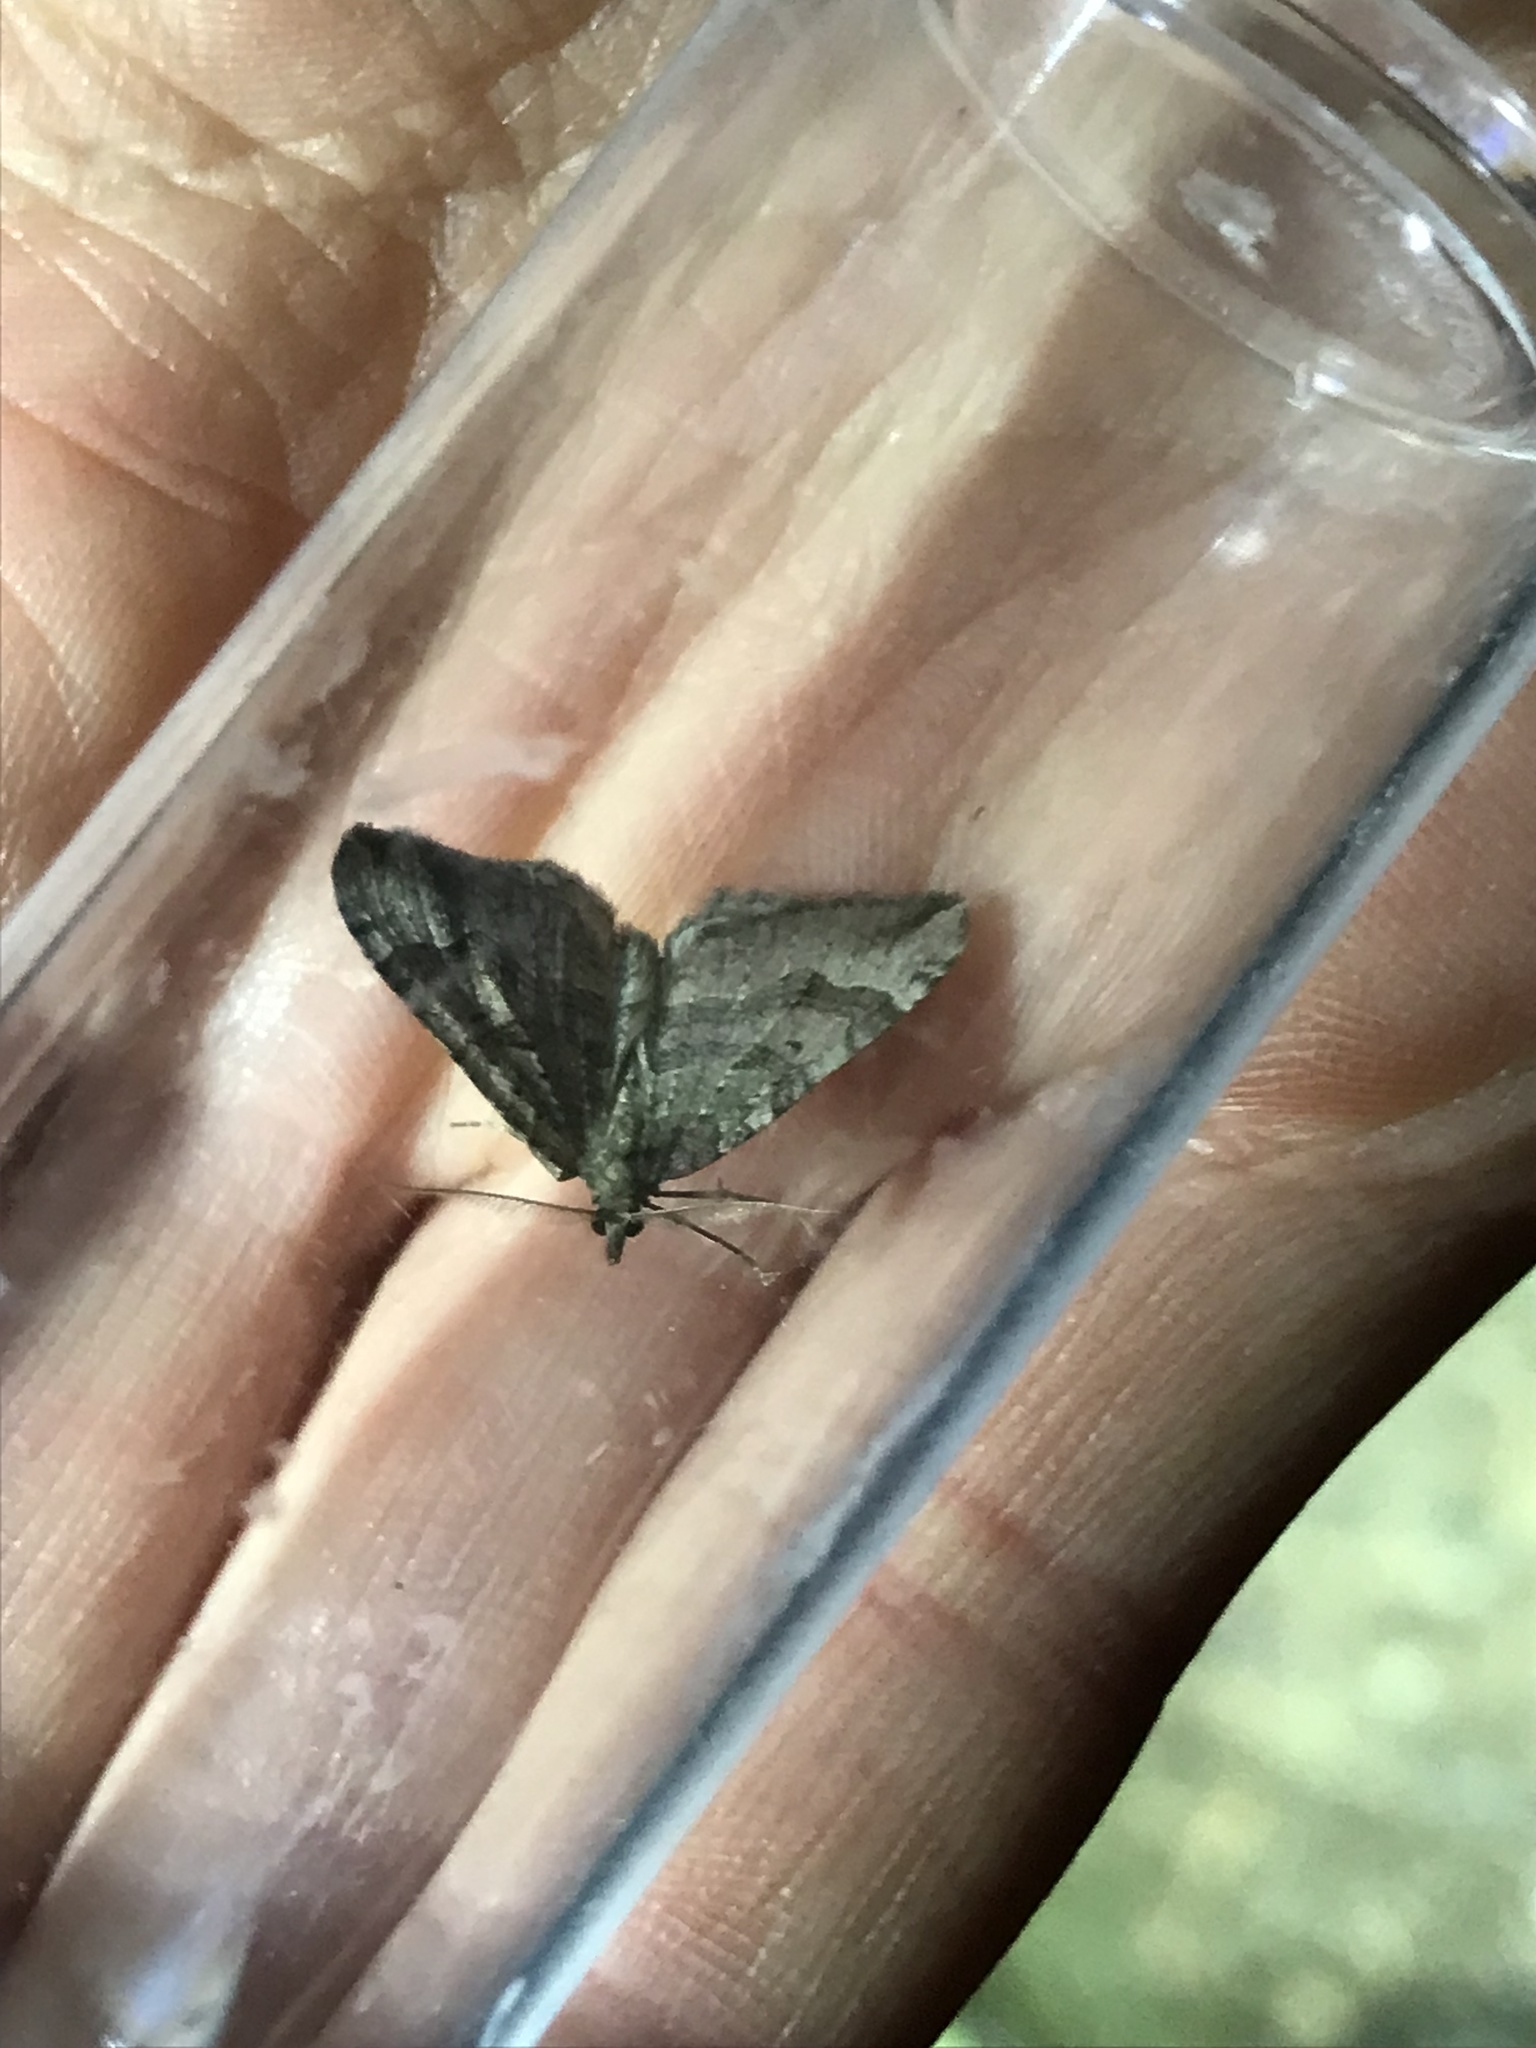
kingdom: Animalia
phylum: Arthropoda
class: Insecta
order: Lepidoptera
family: Geometridae
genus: Epyaxa
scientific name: Epyaxa rosearia
